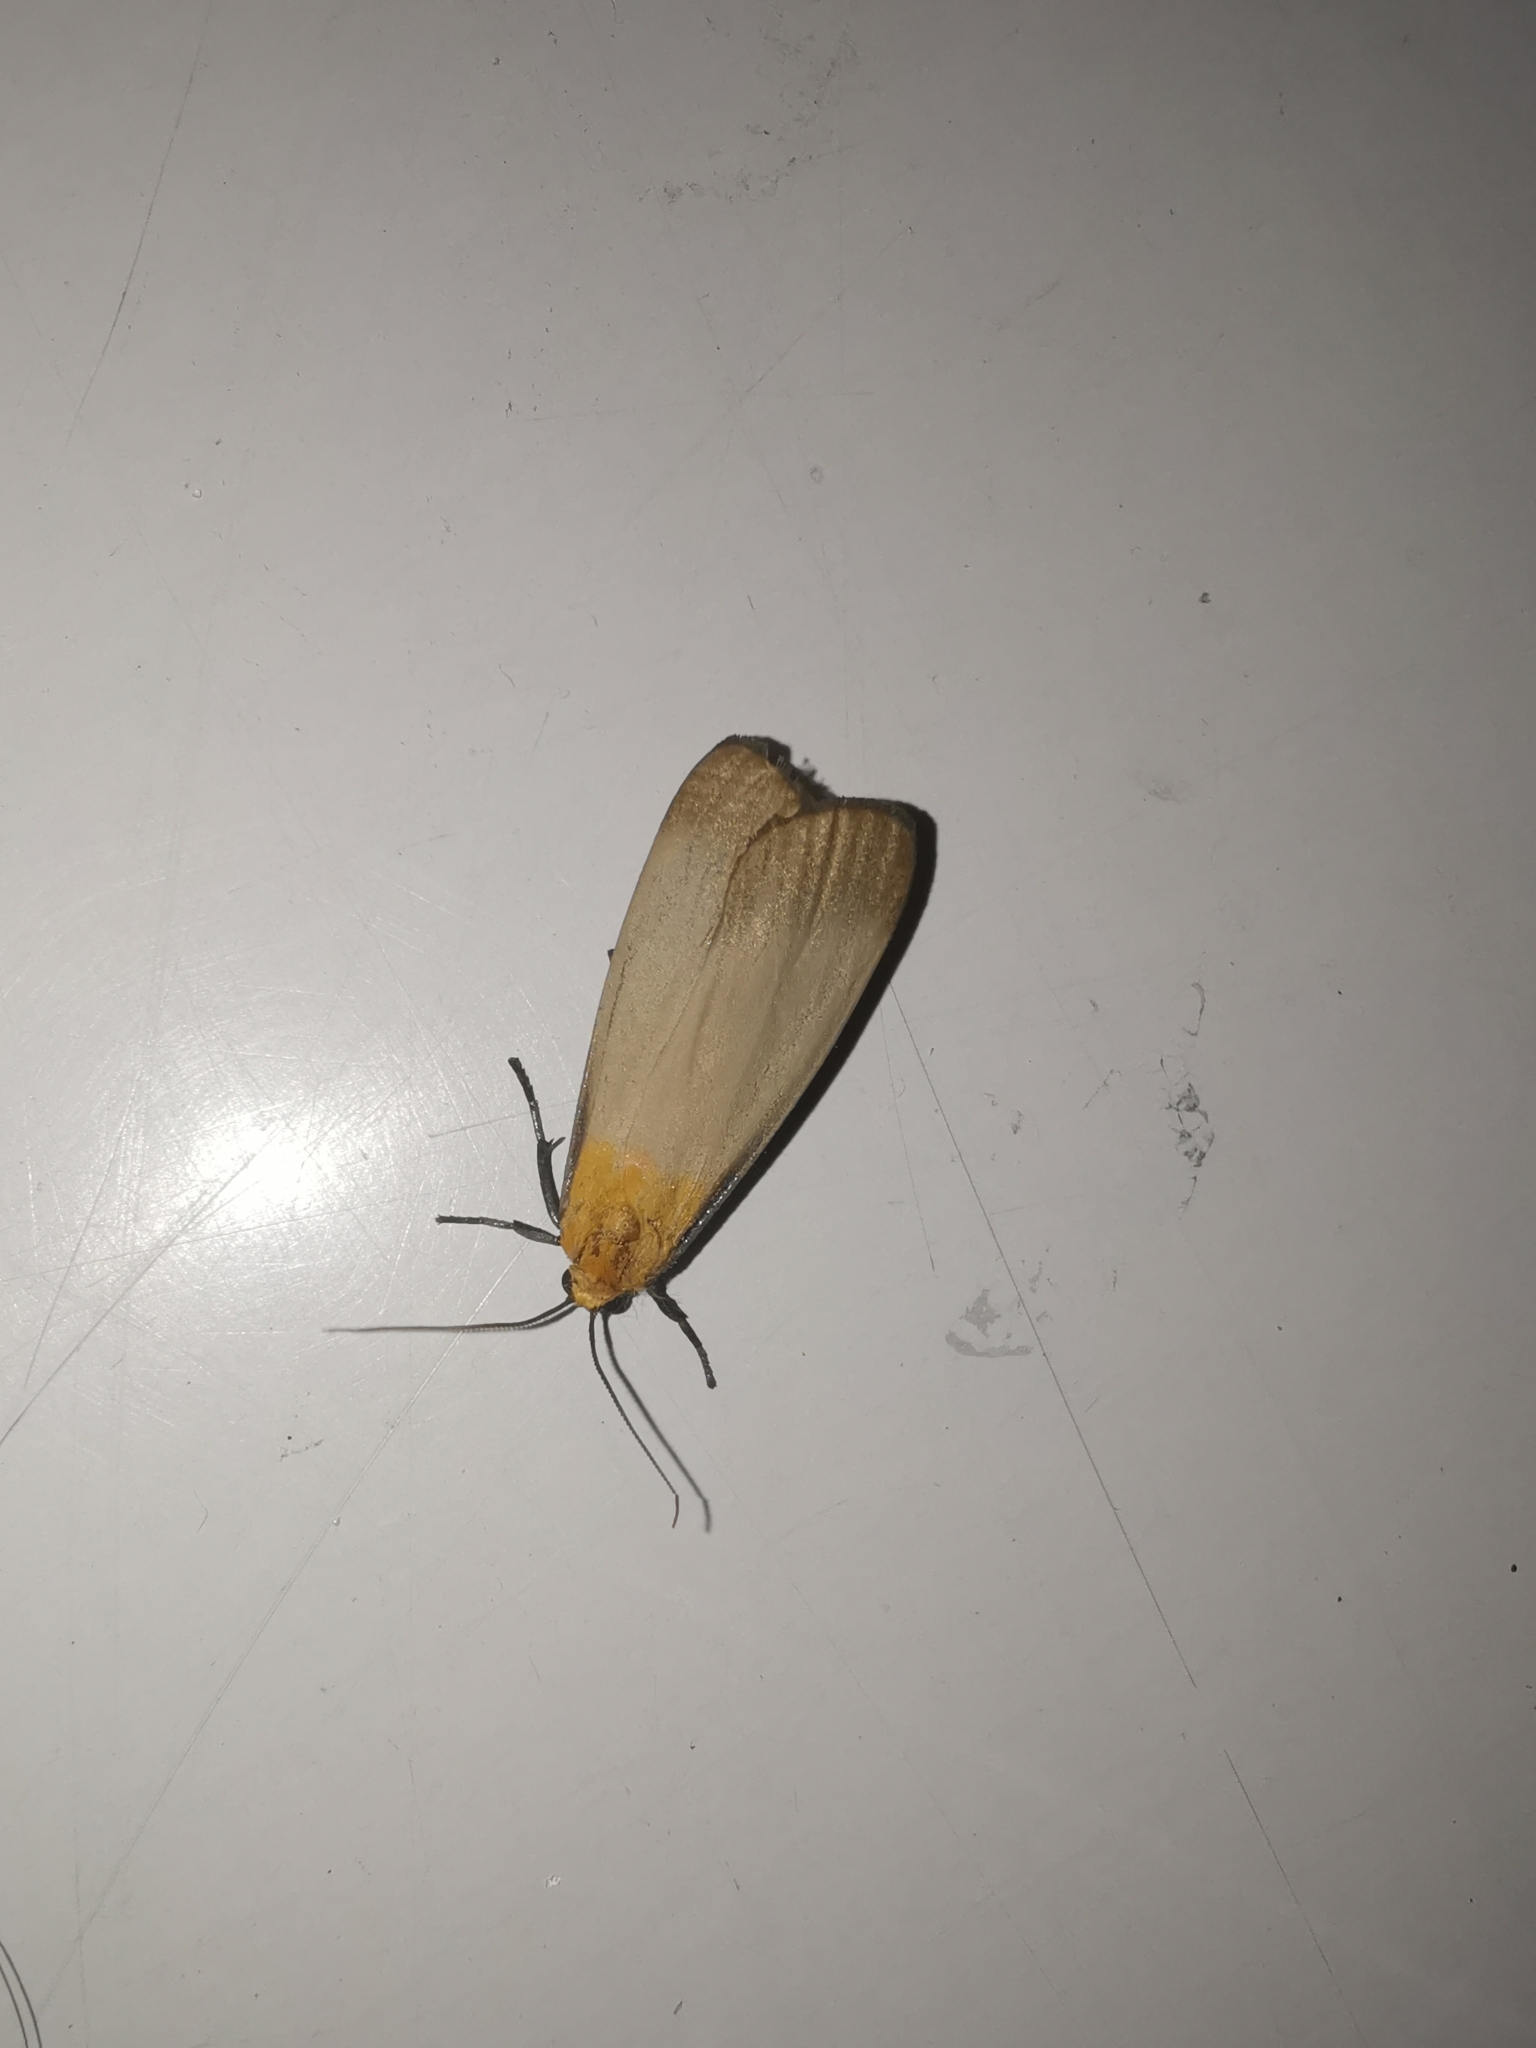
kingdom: Animalia
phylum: Arthropoda
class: Insecta
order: Lepidoptera
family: Erebidae
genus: Lithosia
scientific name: Lithosia quadra
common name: Four-spotted footman
